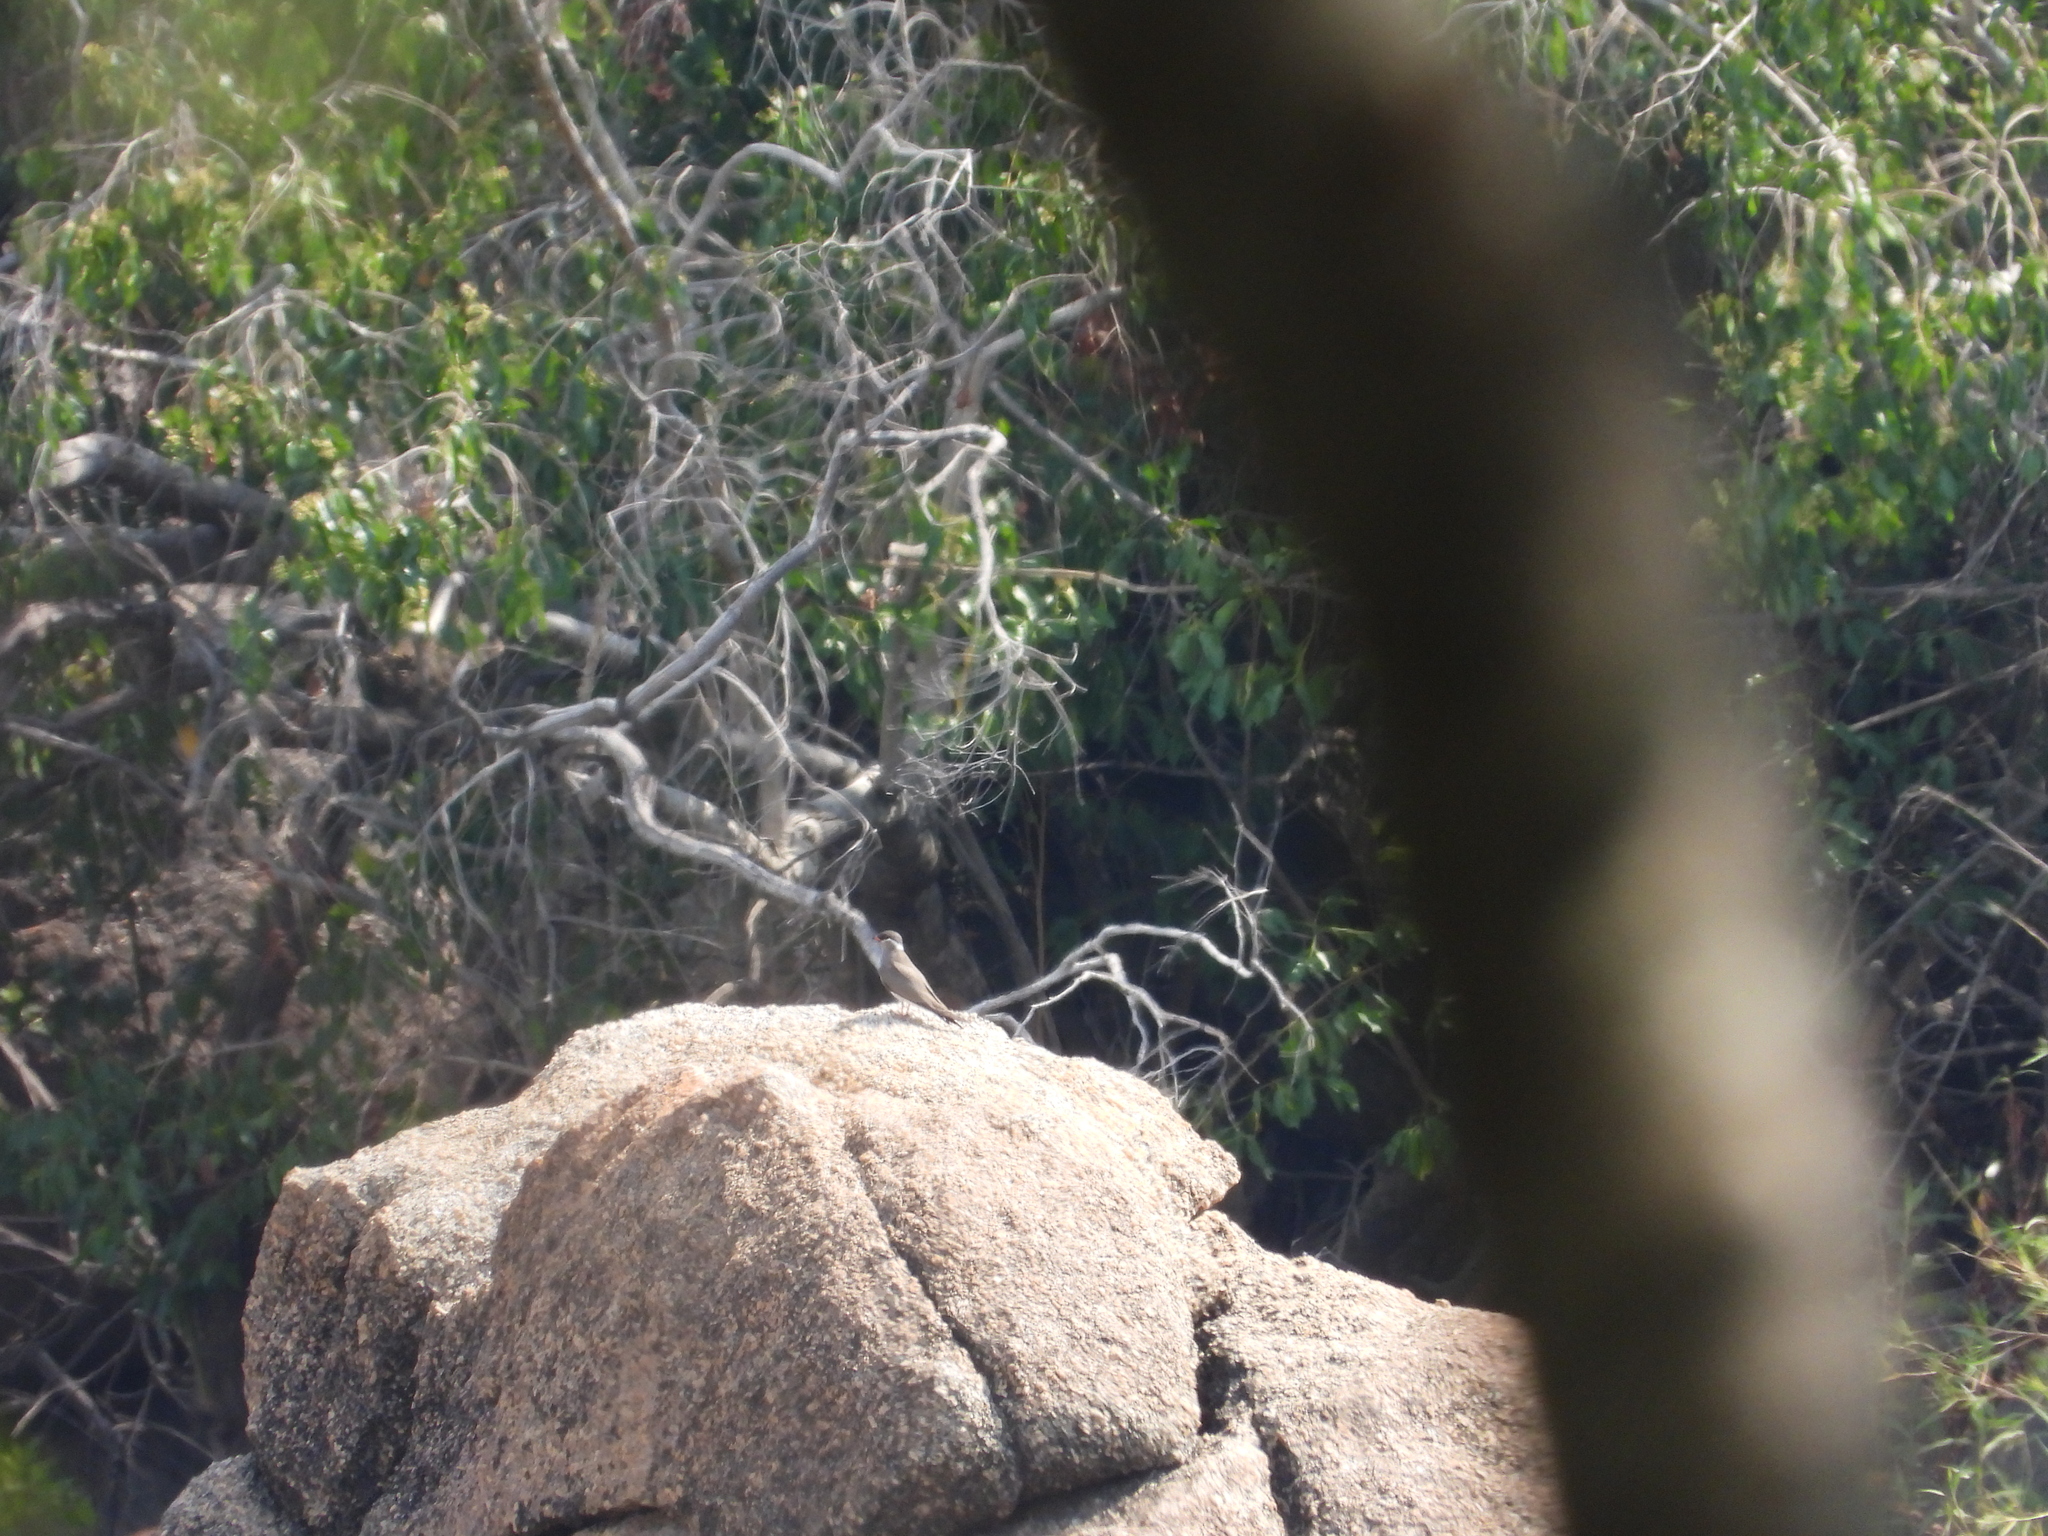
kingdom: Animalia
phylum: Chordata
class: Aves
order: Charadriiformes
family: Glareolidae
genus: Glareola
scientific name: Glareola nuchalis
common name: Rock pratincole
